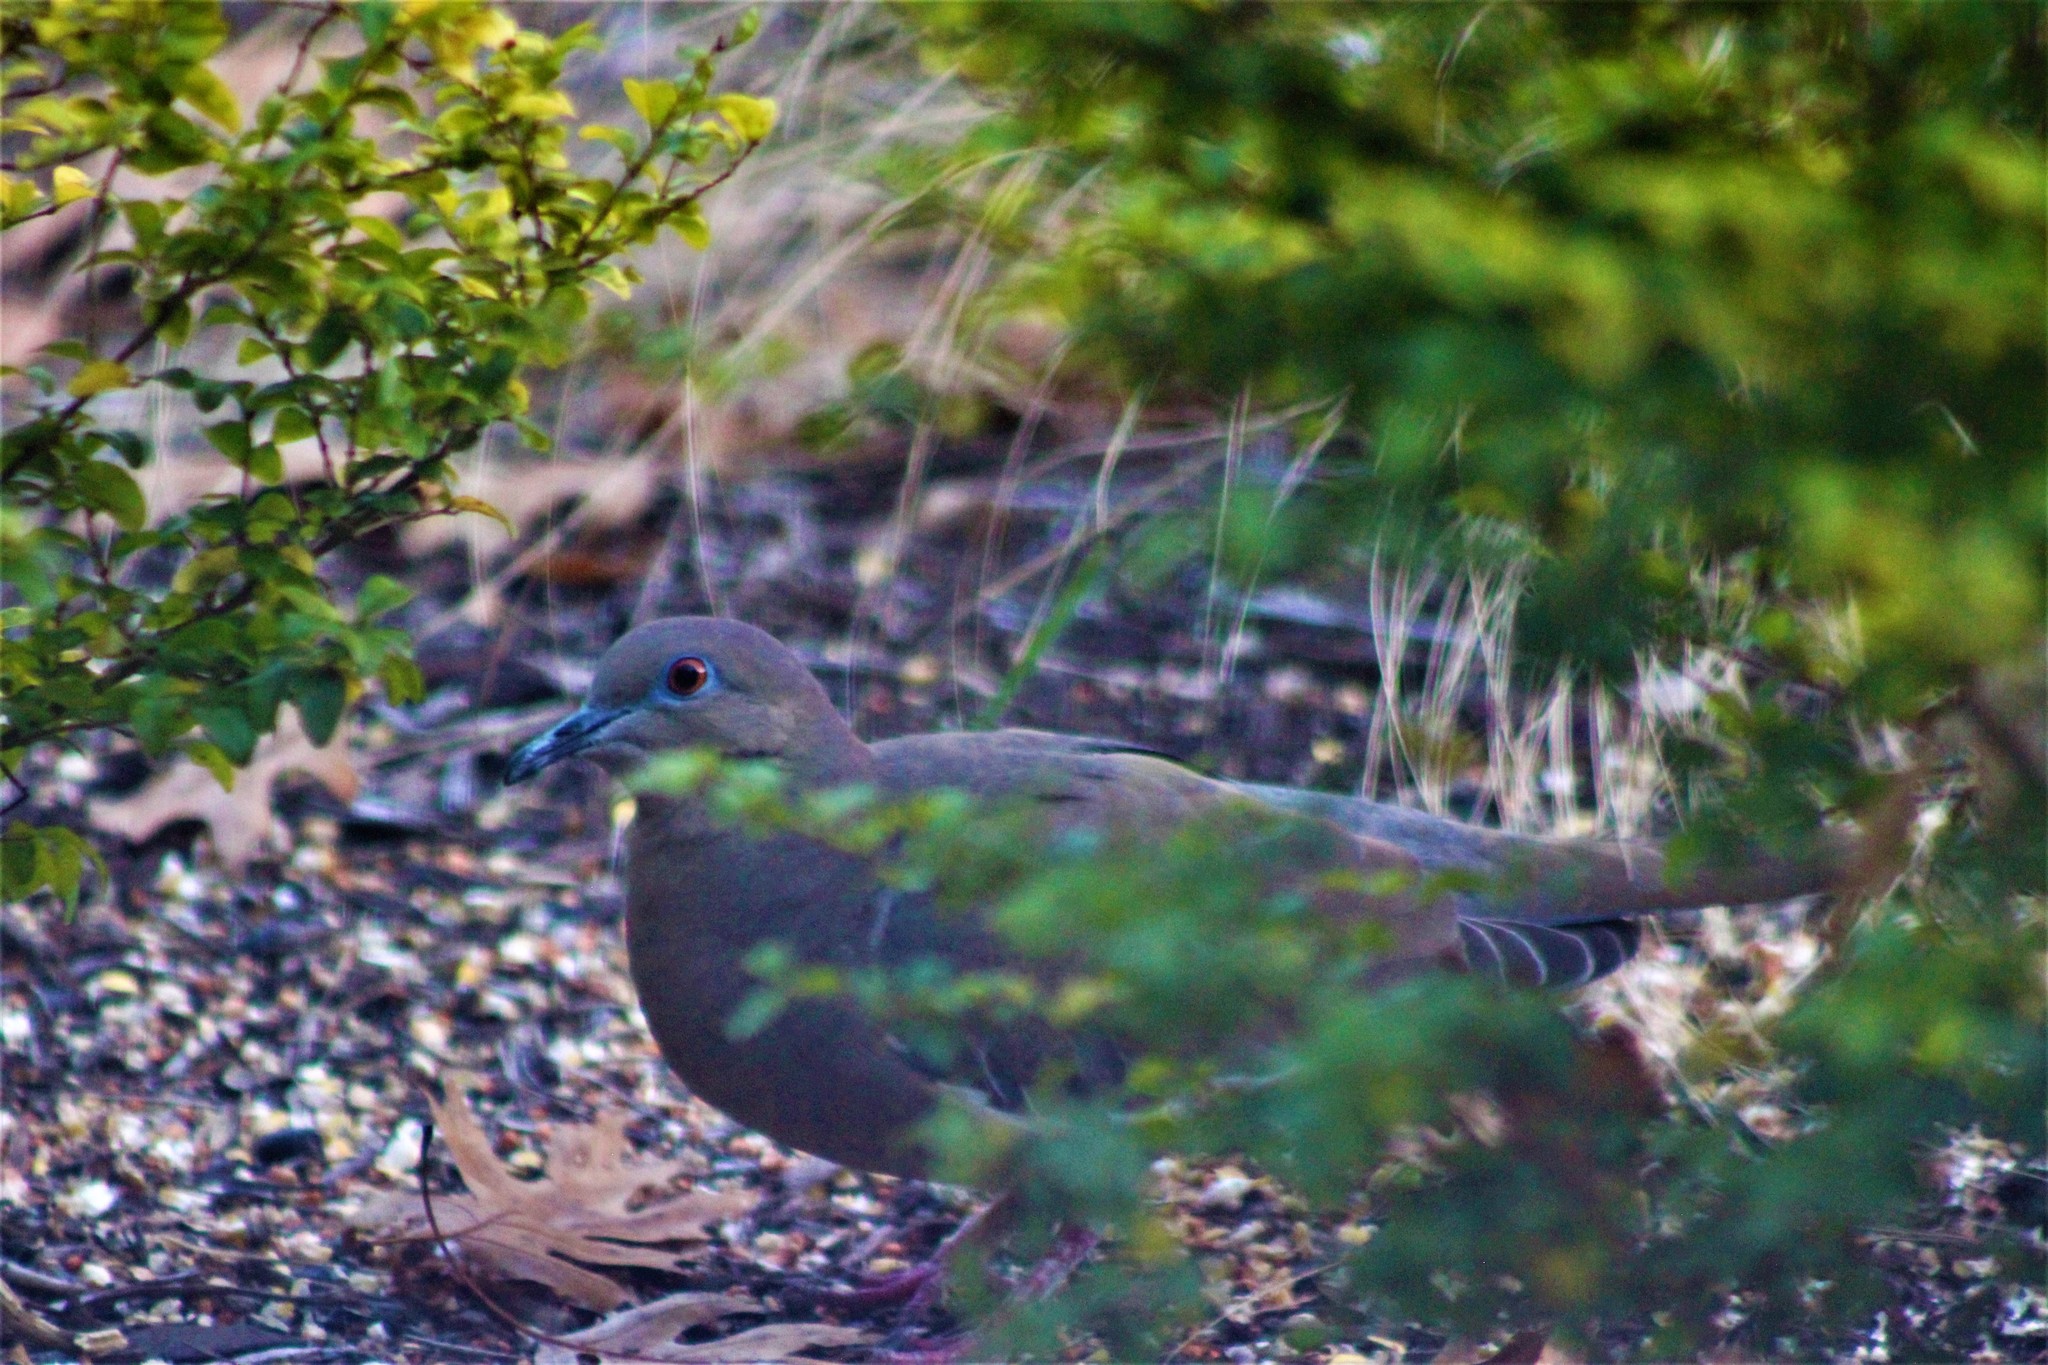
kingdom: Animalia
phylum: Chordata
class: Aves
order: Columbiformes
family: Columbidae
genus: Zenaida
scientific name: Zenaida macroura
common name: Mourning dove
